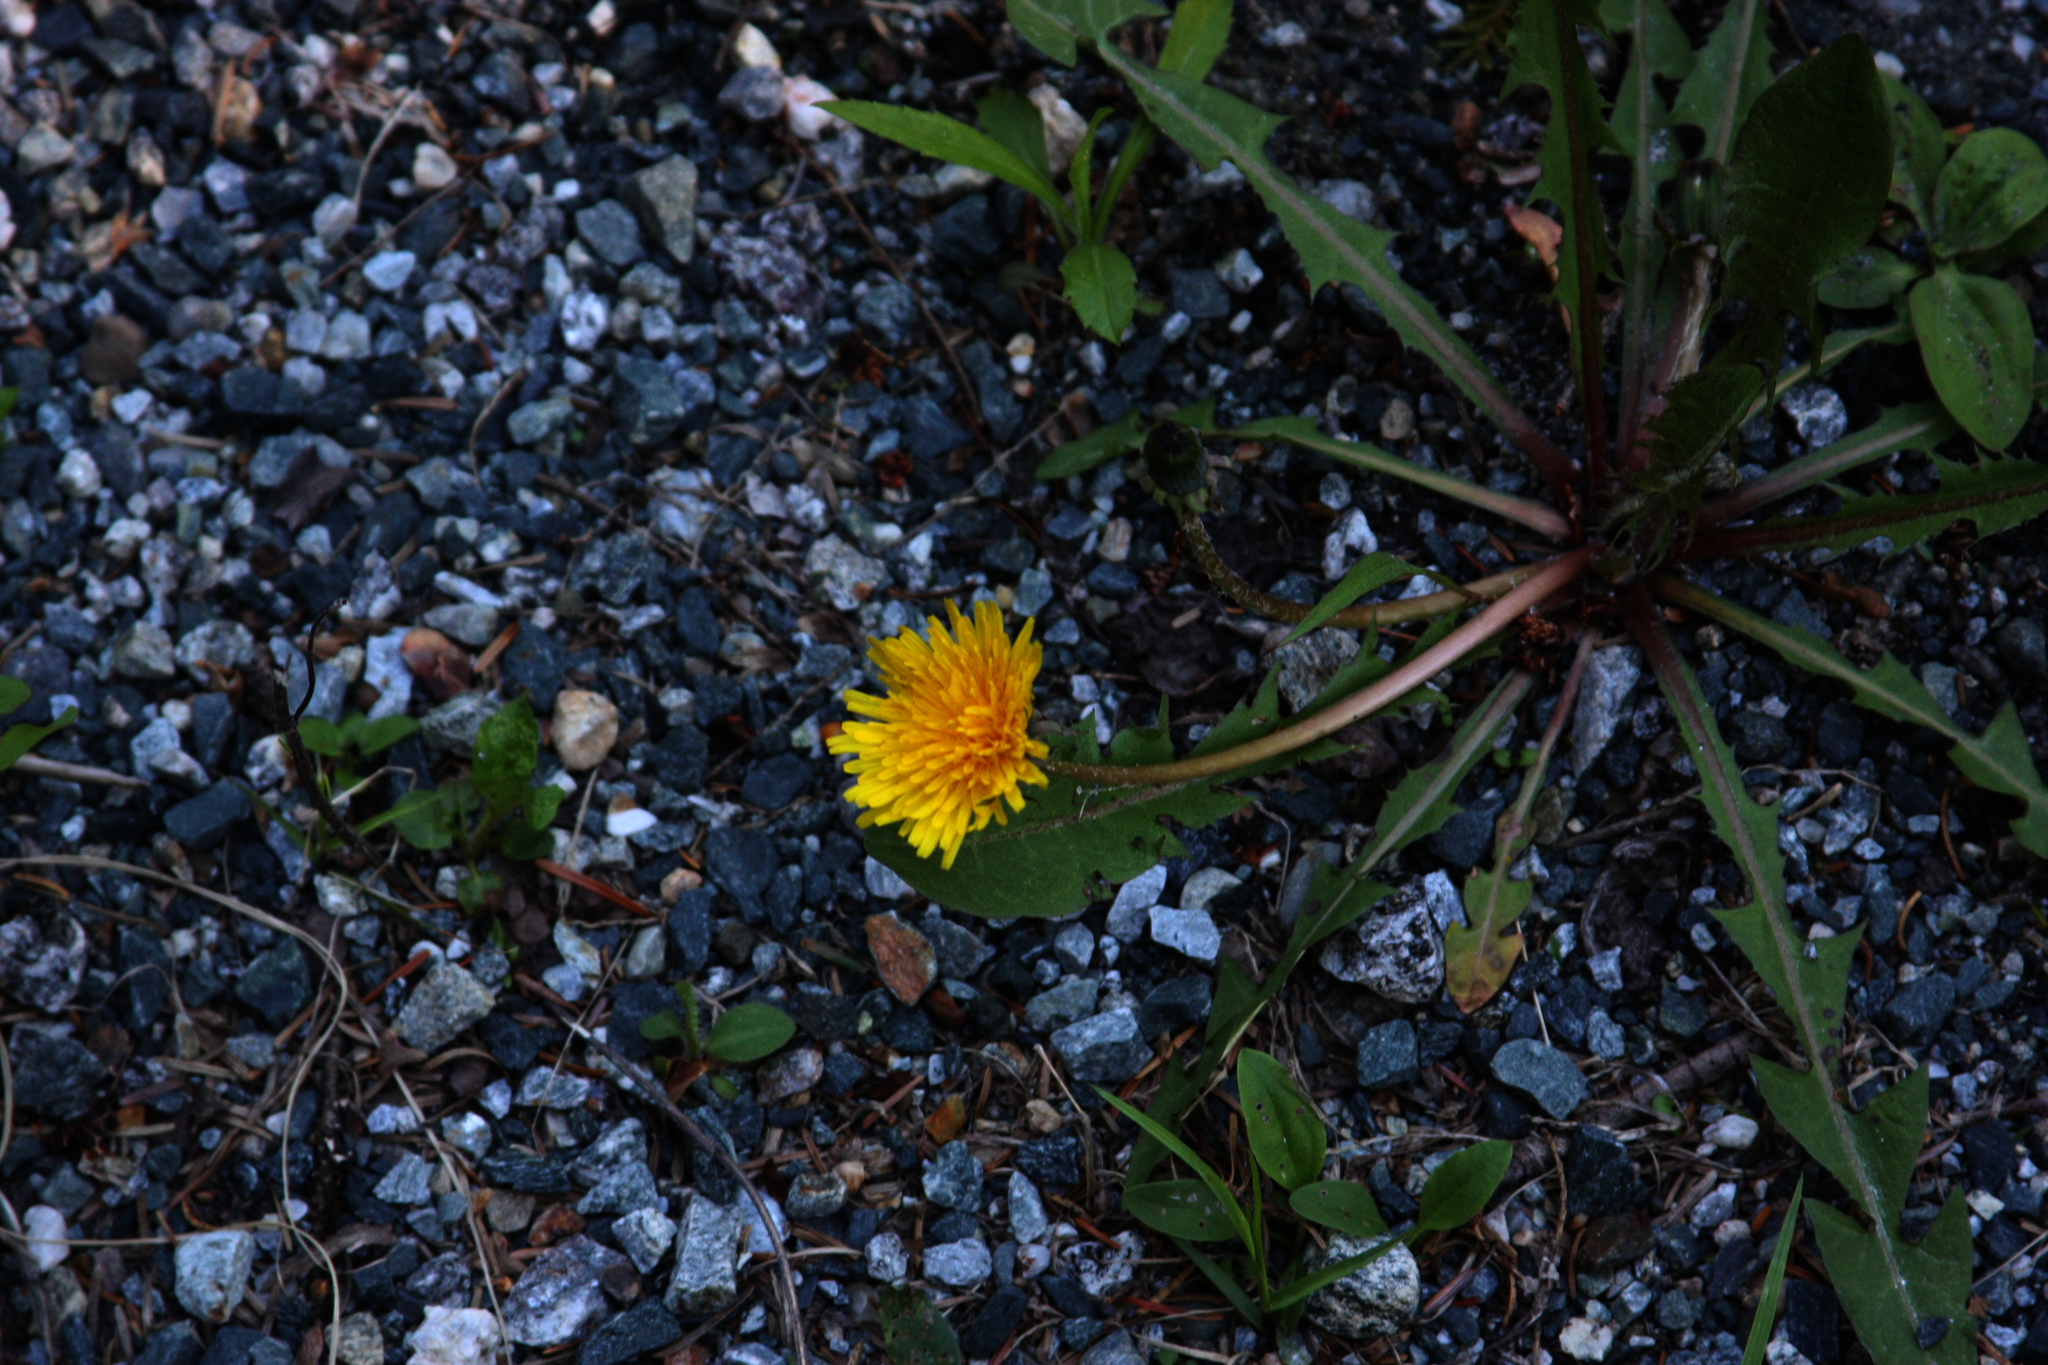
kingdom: Plantae
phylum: Tracheophyta
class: Magnoliopsida
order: Asterales
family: Asteraceae
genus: Taraxacum
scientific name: Taraxacum officinale
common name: Common dandelion
